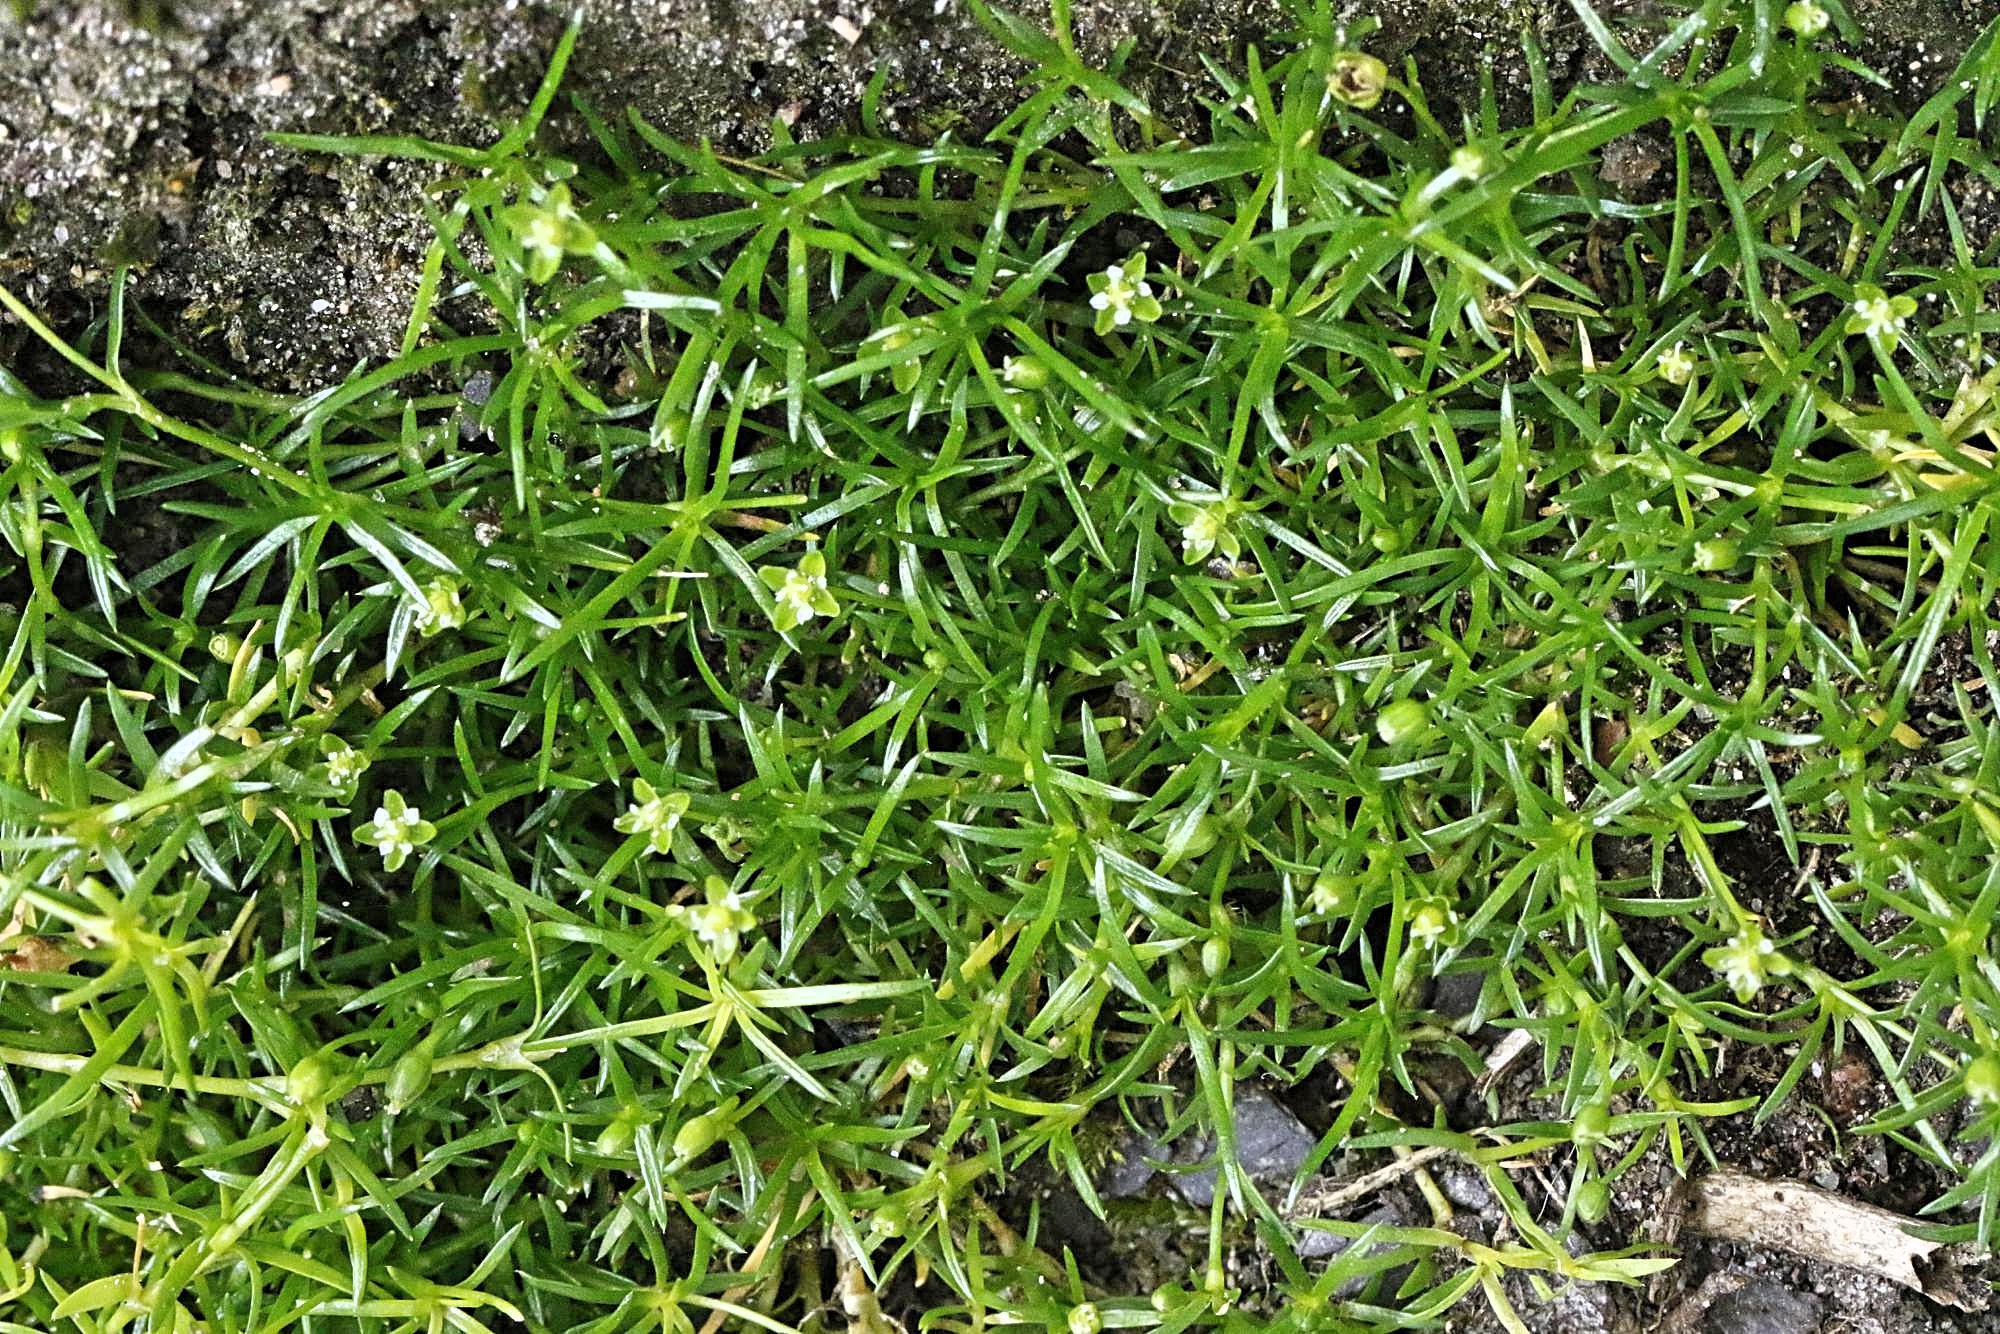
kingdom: Plantae
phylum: Tracheophyta
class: Magnoliopsida
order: Caryophyllales
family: Caryophyllaceae
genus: Sagina
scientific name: Sagina procumbens
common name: Procumbent pearlwort
